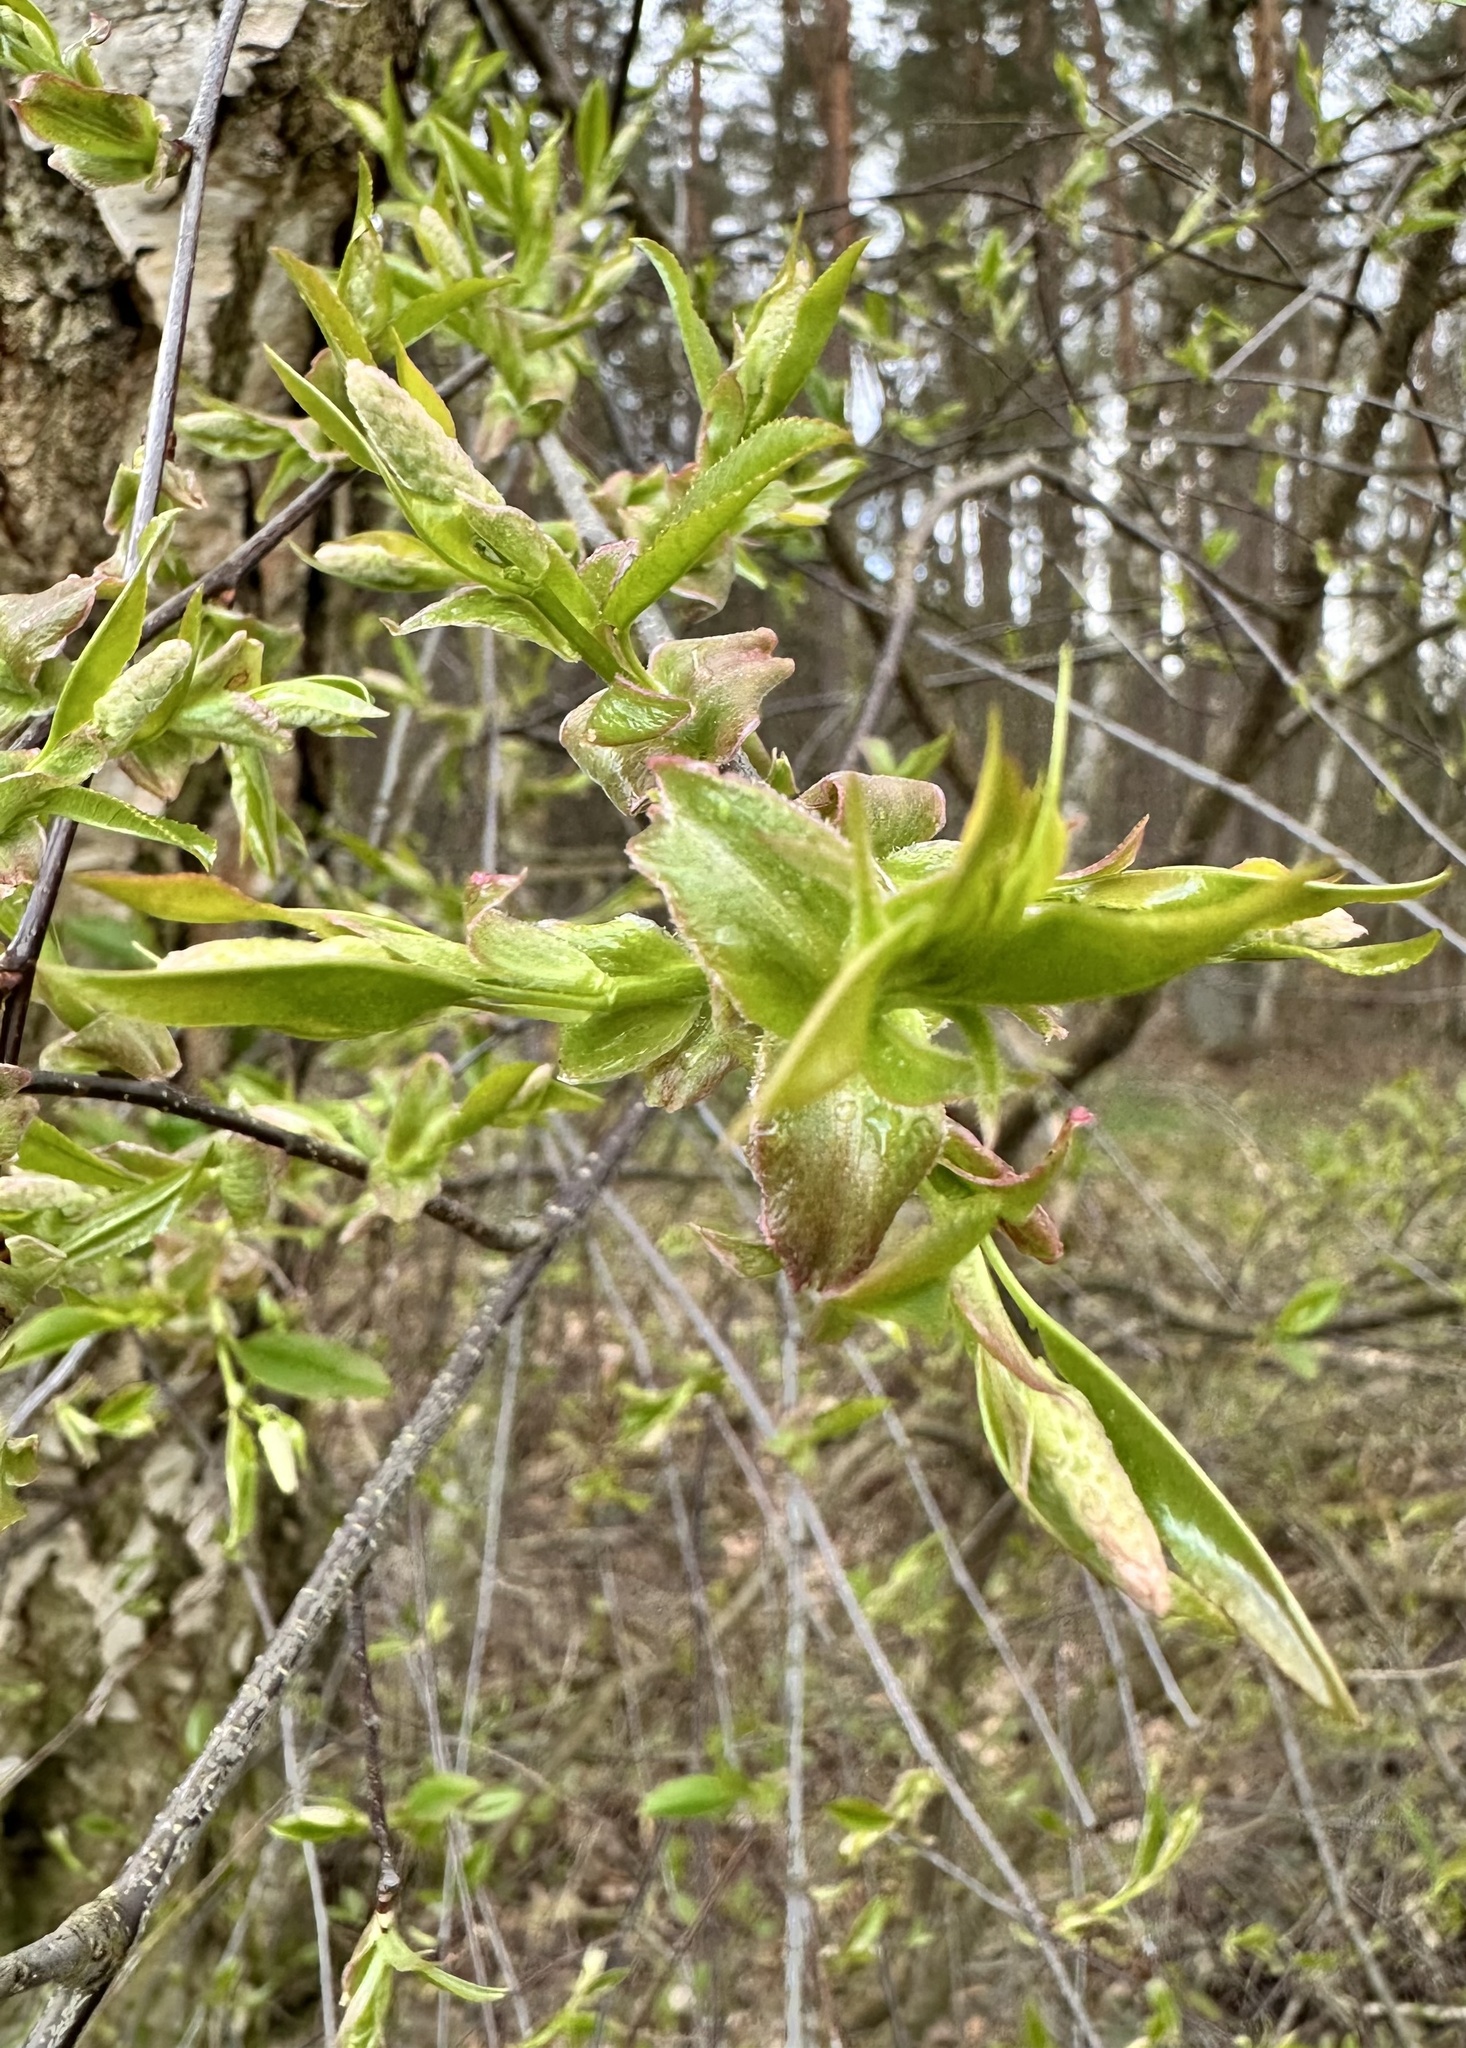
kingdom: Plantae
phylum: Tracheophyta
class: Magnoliopsida
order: Rosales
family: Rosaceae
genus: Prunus
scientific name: Prunus padus
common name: Bird cherry
